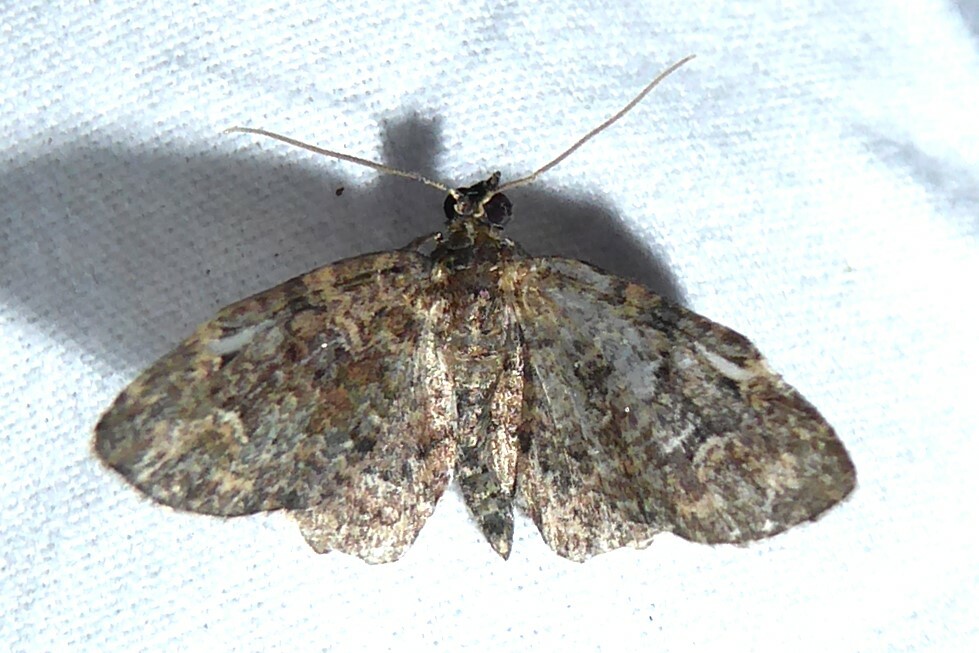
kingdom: Animalia
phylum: Arthropoda
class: Insecta
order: Lepidoptera
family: Geometridae
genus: Pasiphilodes
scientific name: Pasiphilodes testulata
